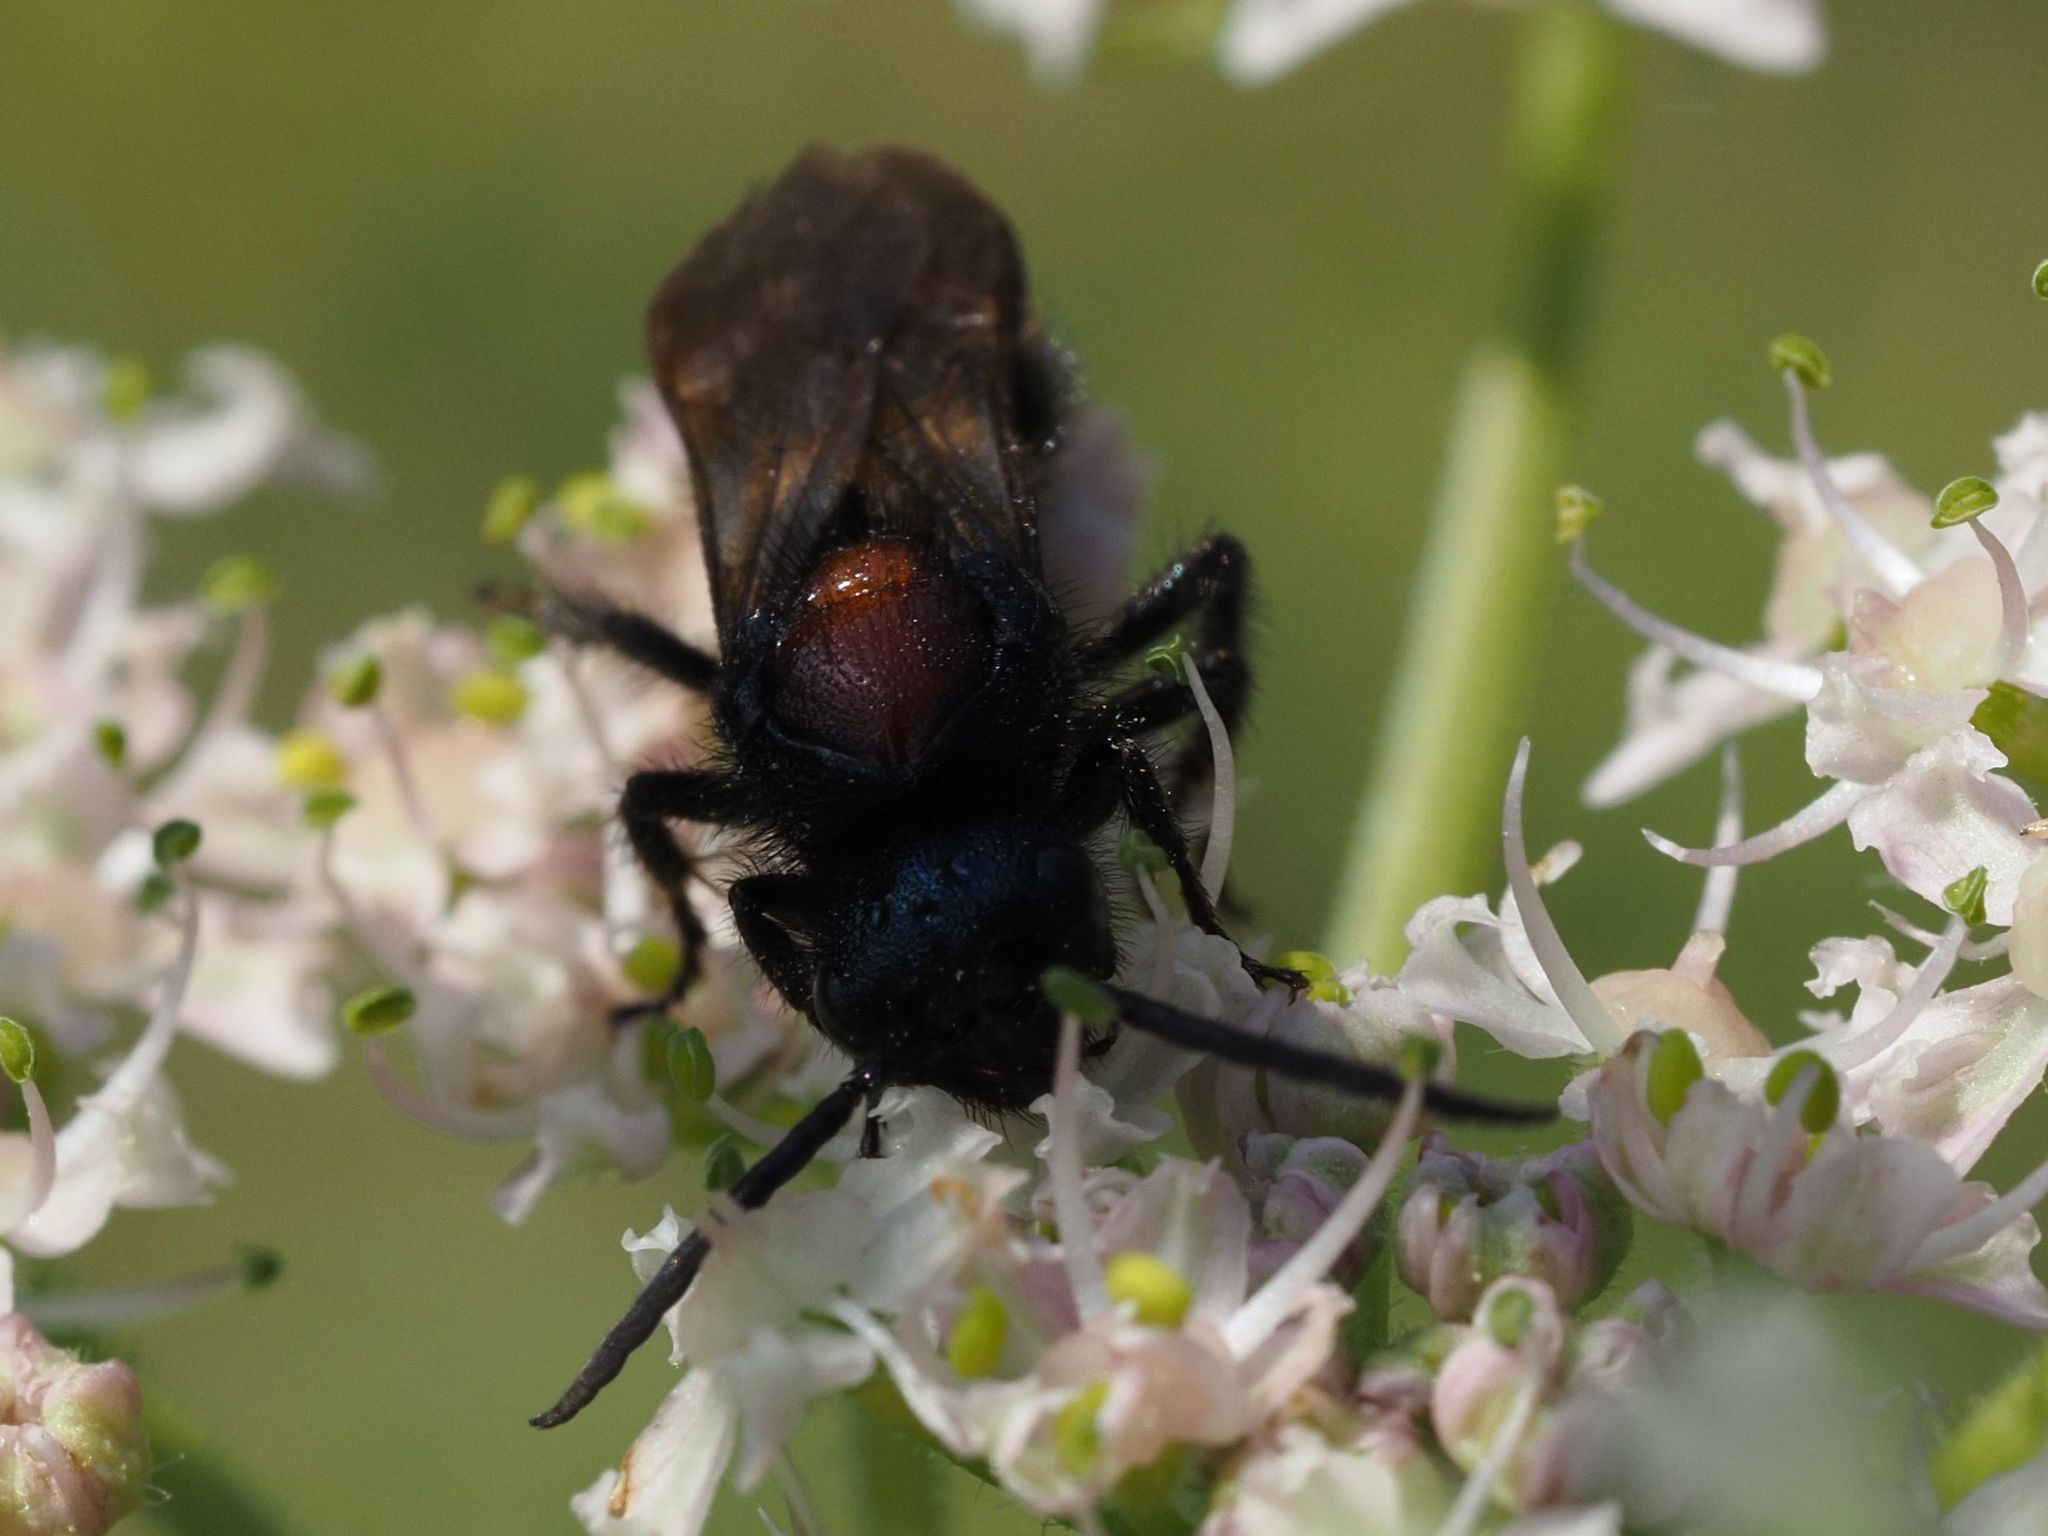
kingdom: Animalia
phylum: Arthropoda
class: Insecta
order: Hymenoptera
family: Mutillidae
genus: Mutilla
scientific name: Mutilla europaea
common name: Large velvet ant
